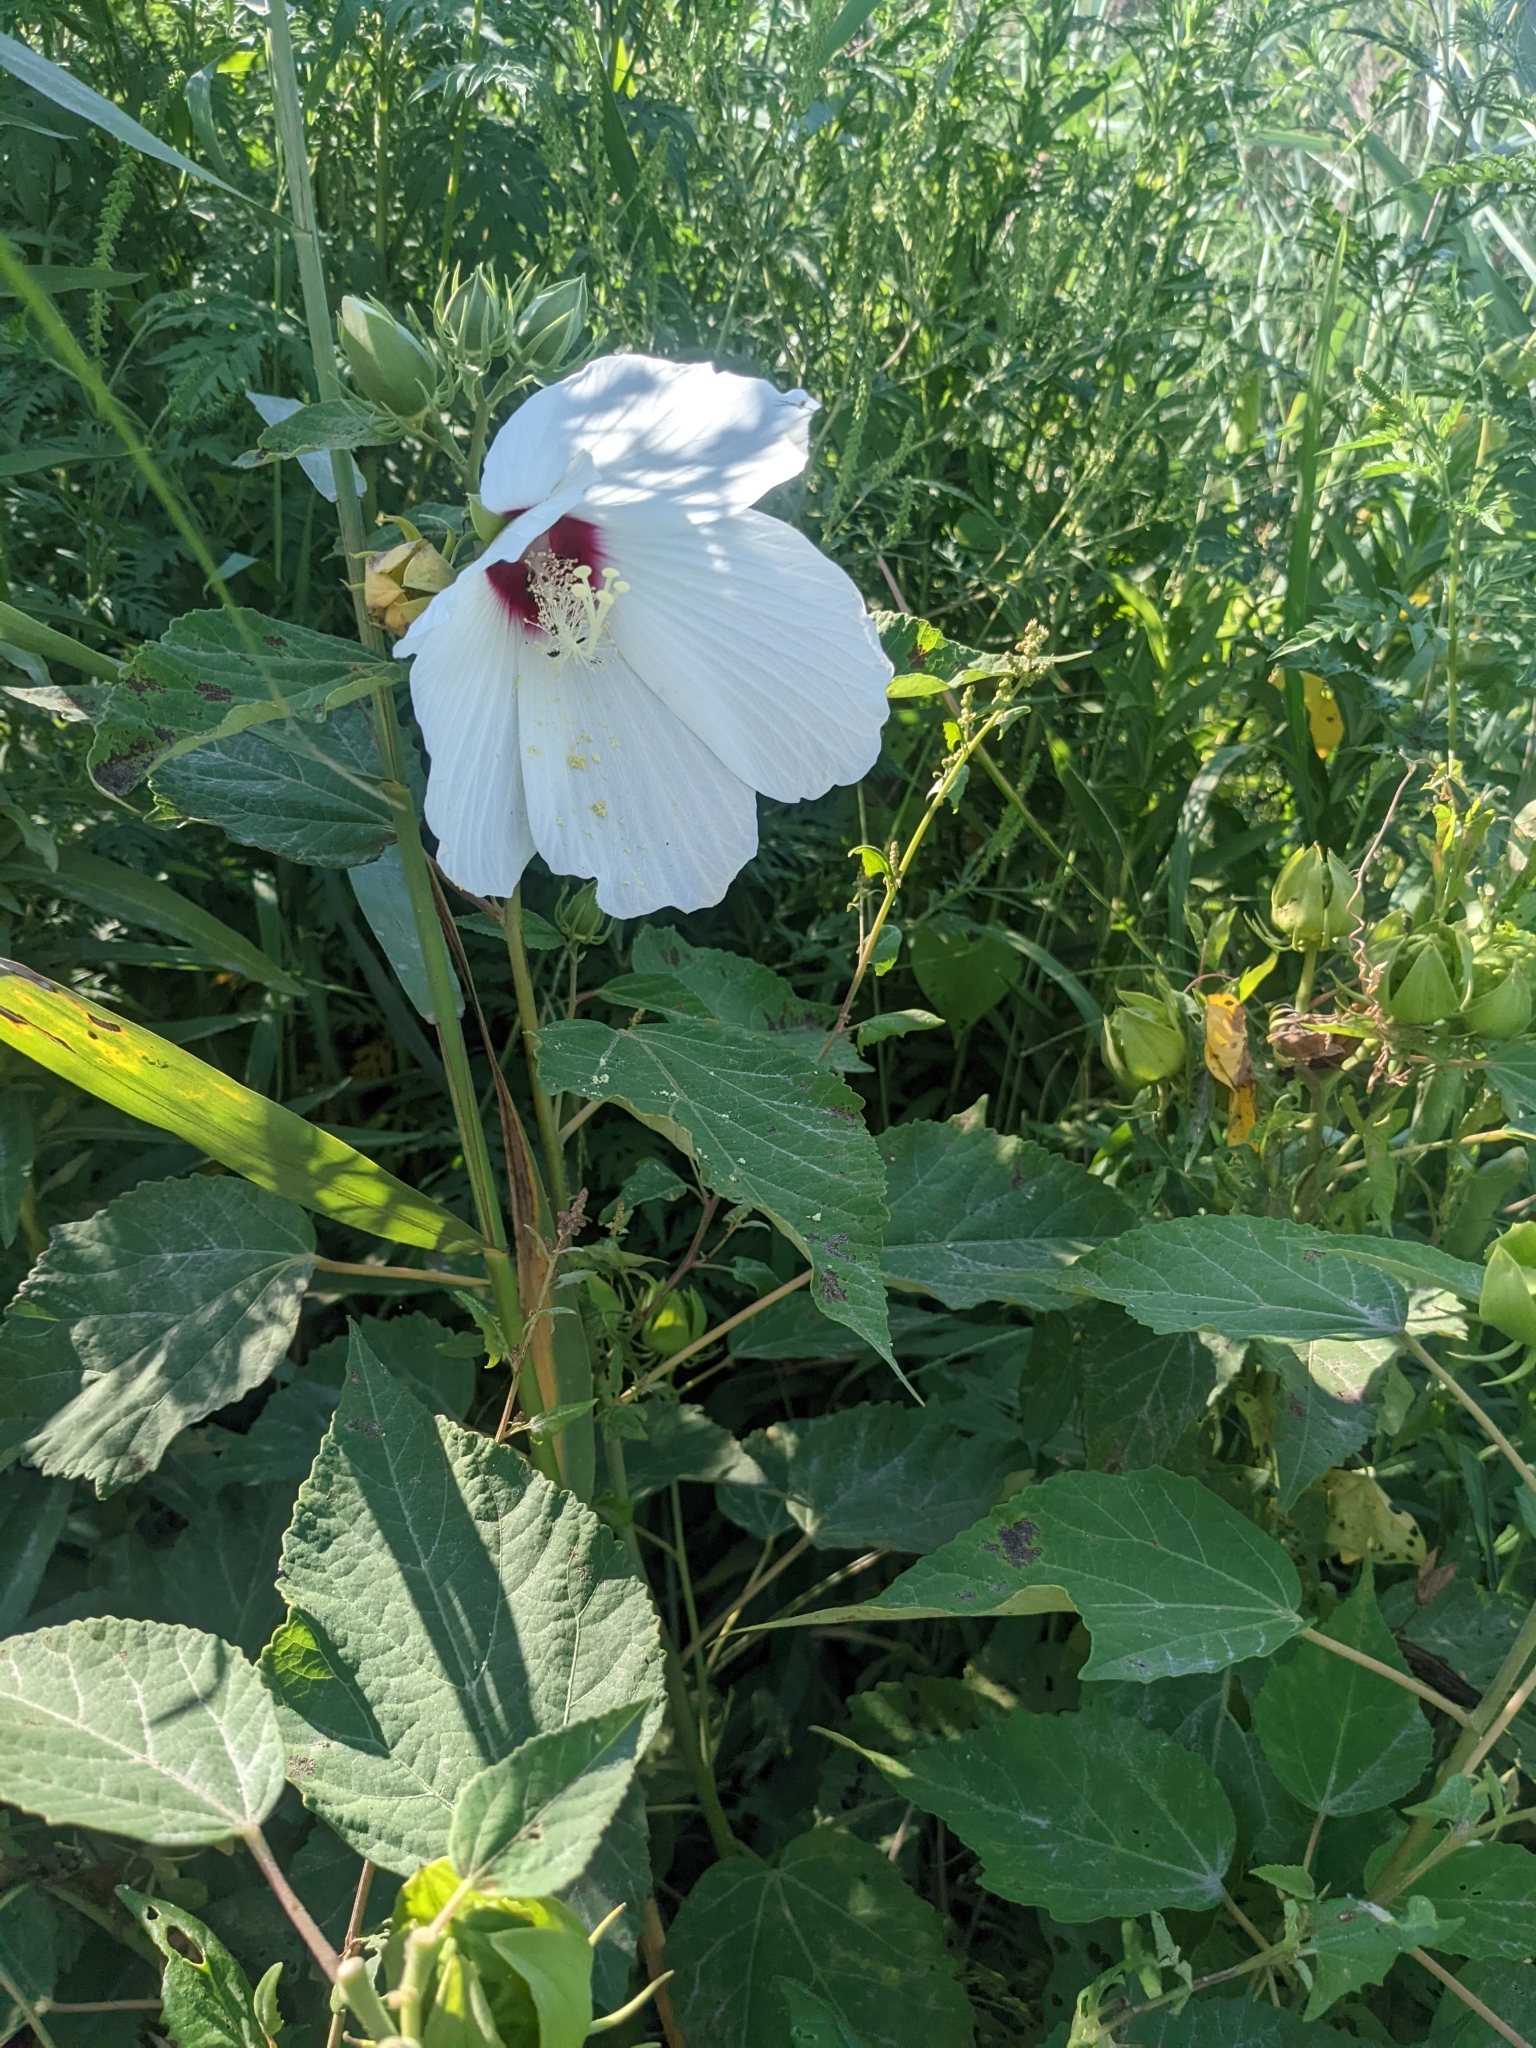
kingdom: Plantae
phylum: Tracheophyta
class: Magnoliopsida
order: Malvales
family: Malvaceae
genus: Hibiscus
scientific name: Hibiscus moscheutos
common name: Common rose-mallow
